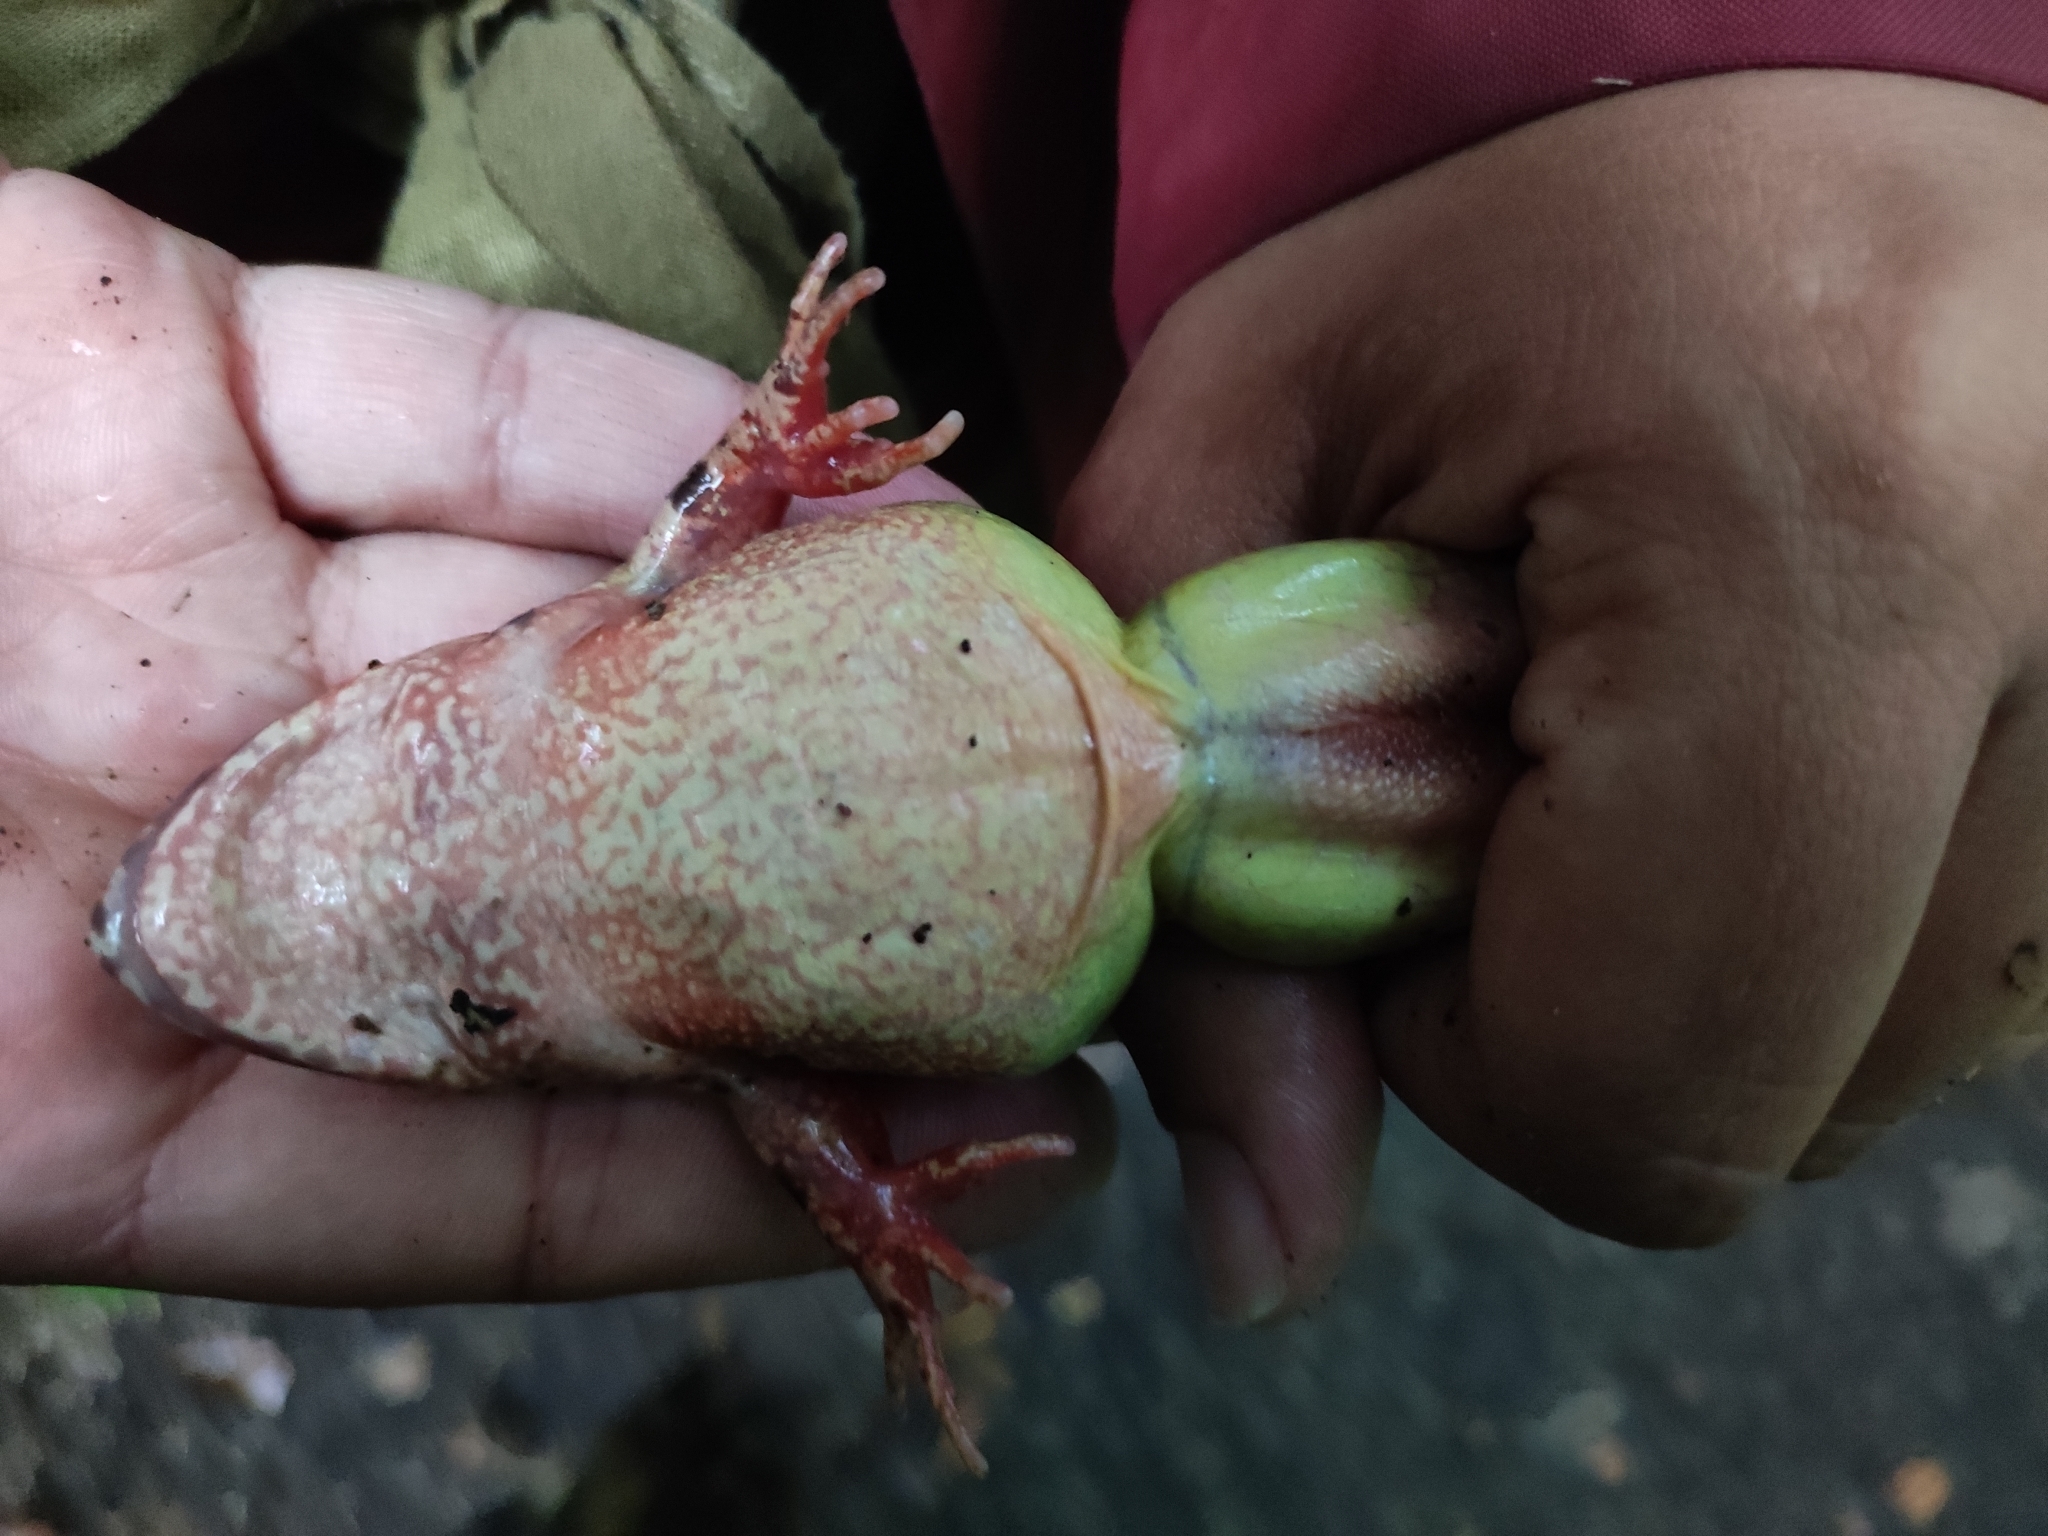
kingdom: Animalia
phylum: Chordata
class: Amphibia
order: Anura
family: Ranidae
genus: Rana
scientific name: Rana dybowskii
